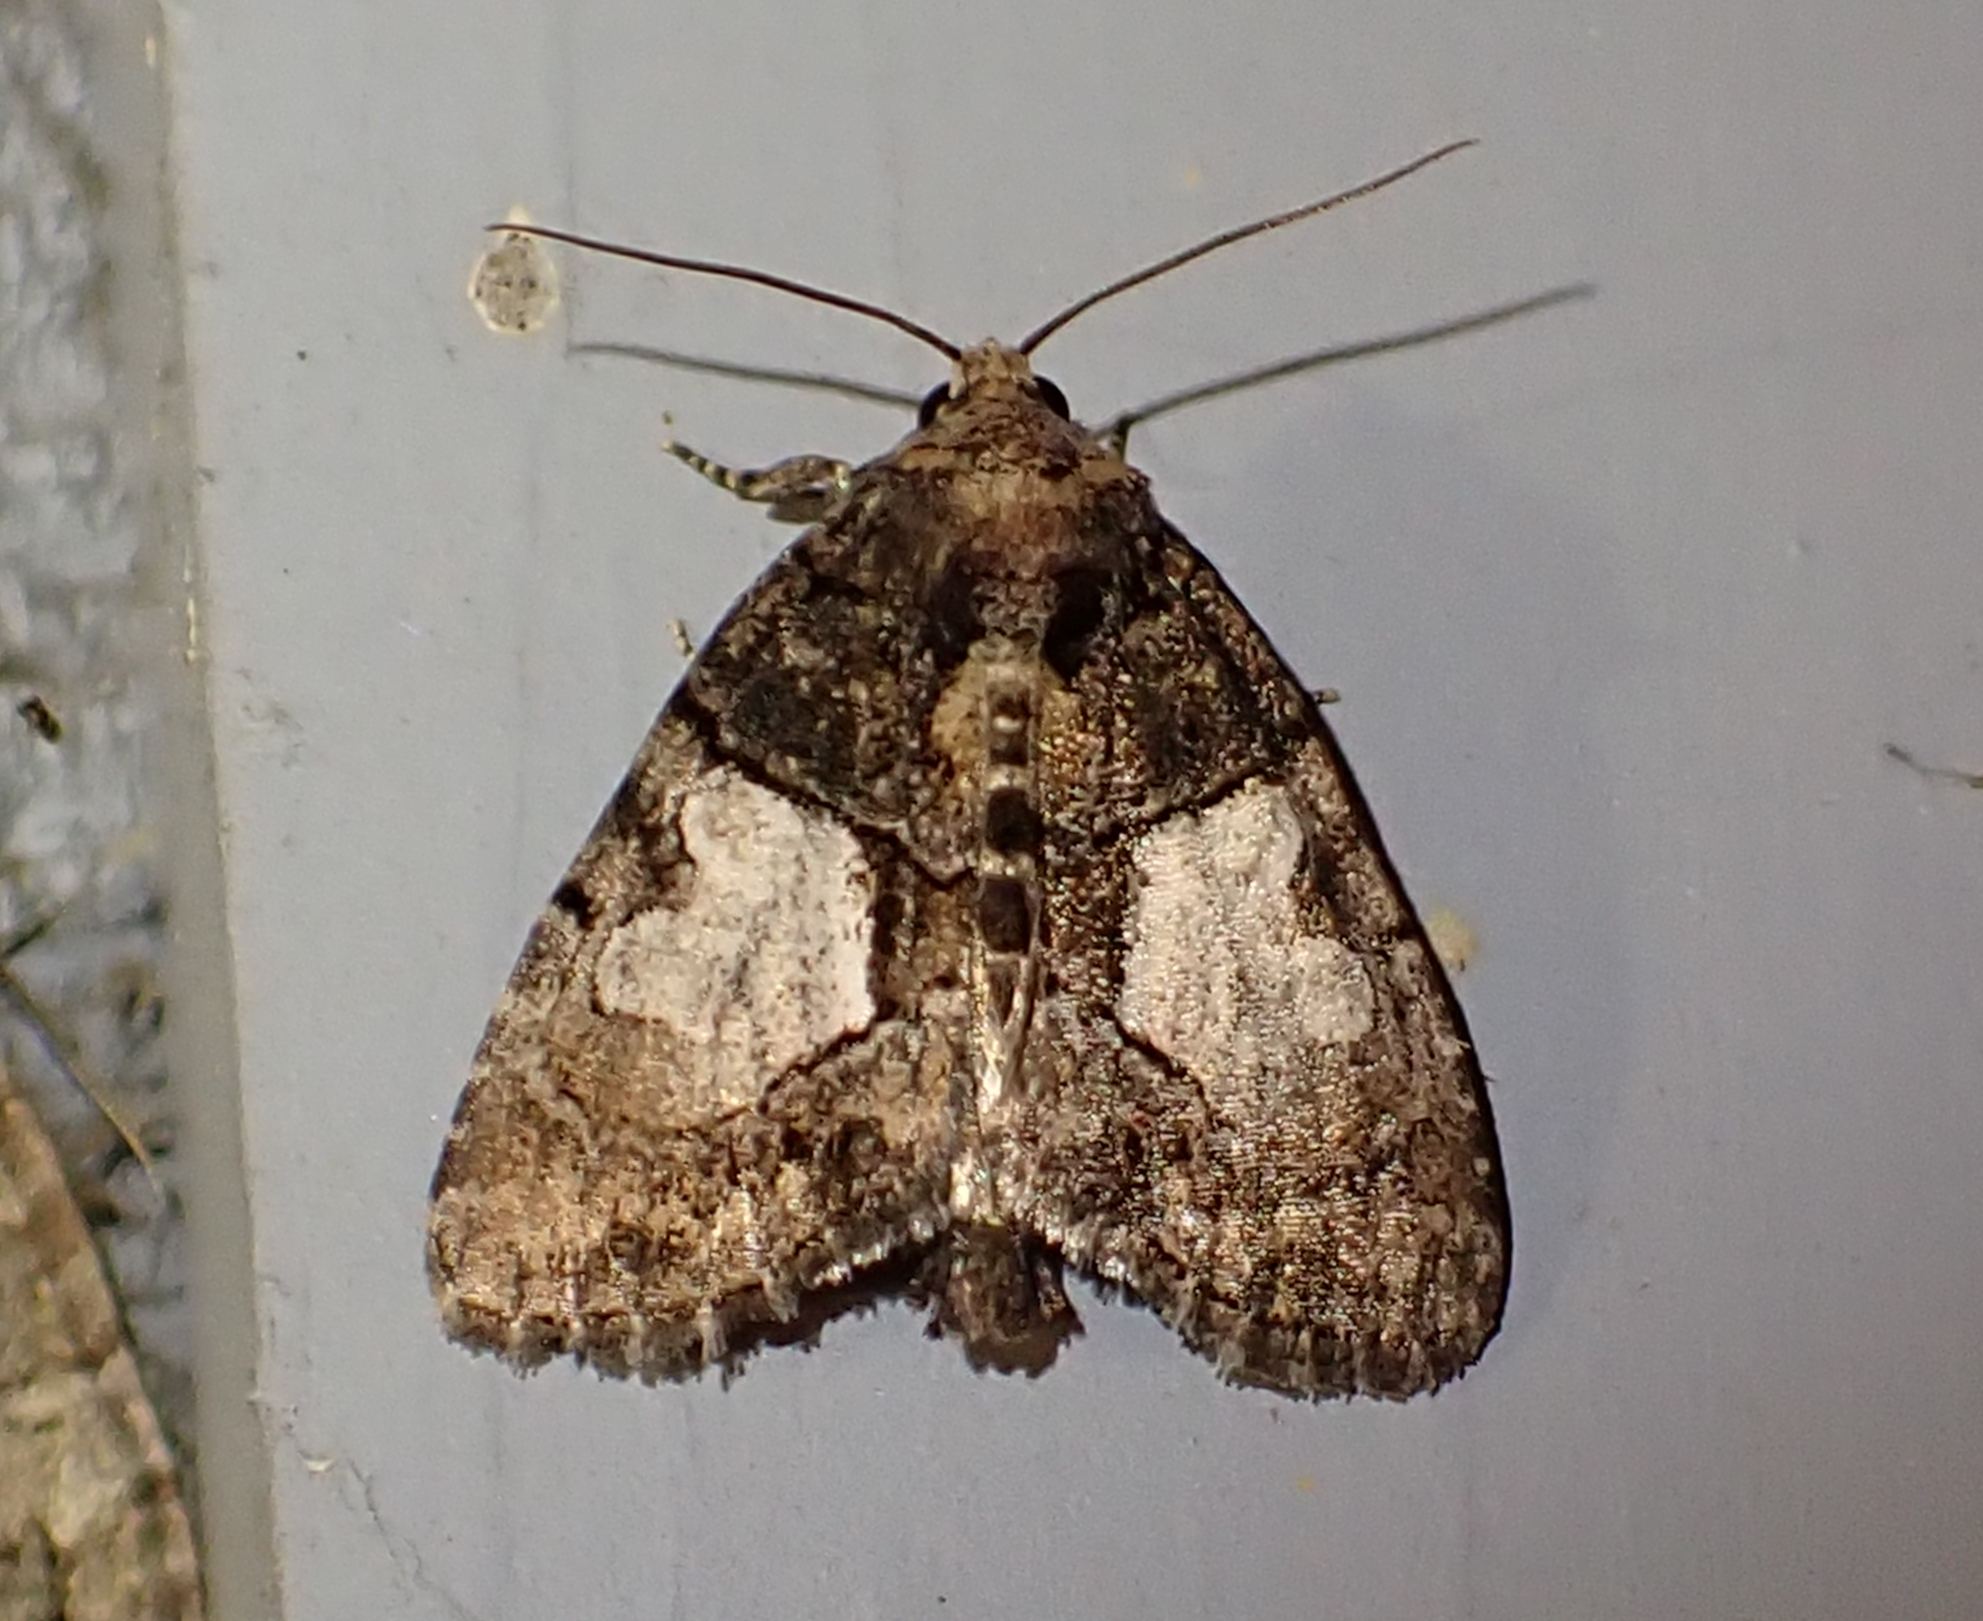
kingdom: Animalia
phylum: Arthropoda
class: Insecta
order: Lepidoptera
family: Noctuidae
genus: Chytonix
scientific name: Chytonix palliatricula
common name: Cloaked marvel
